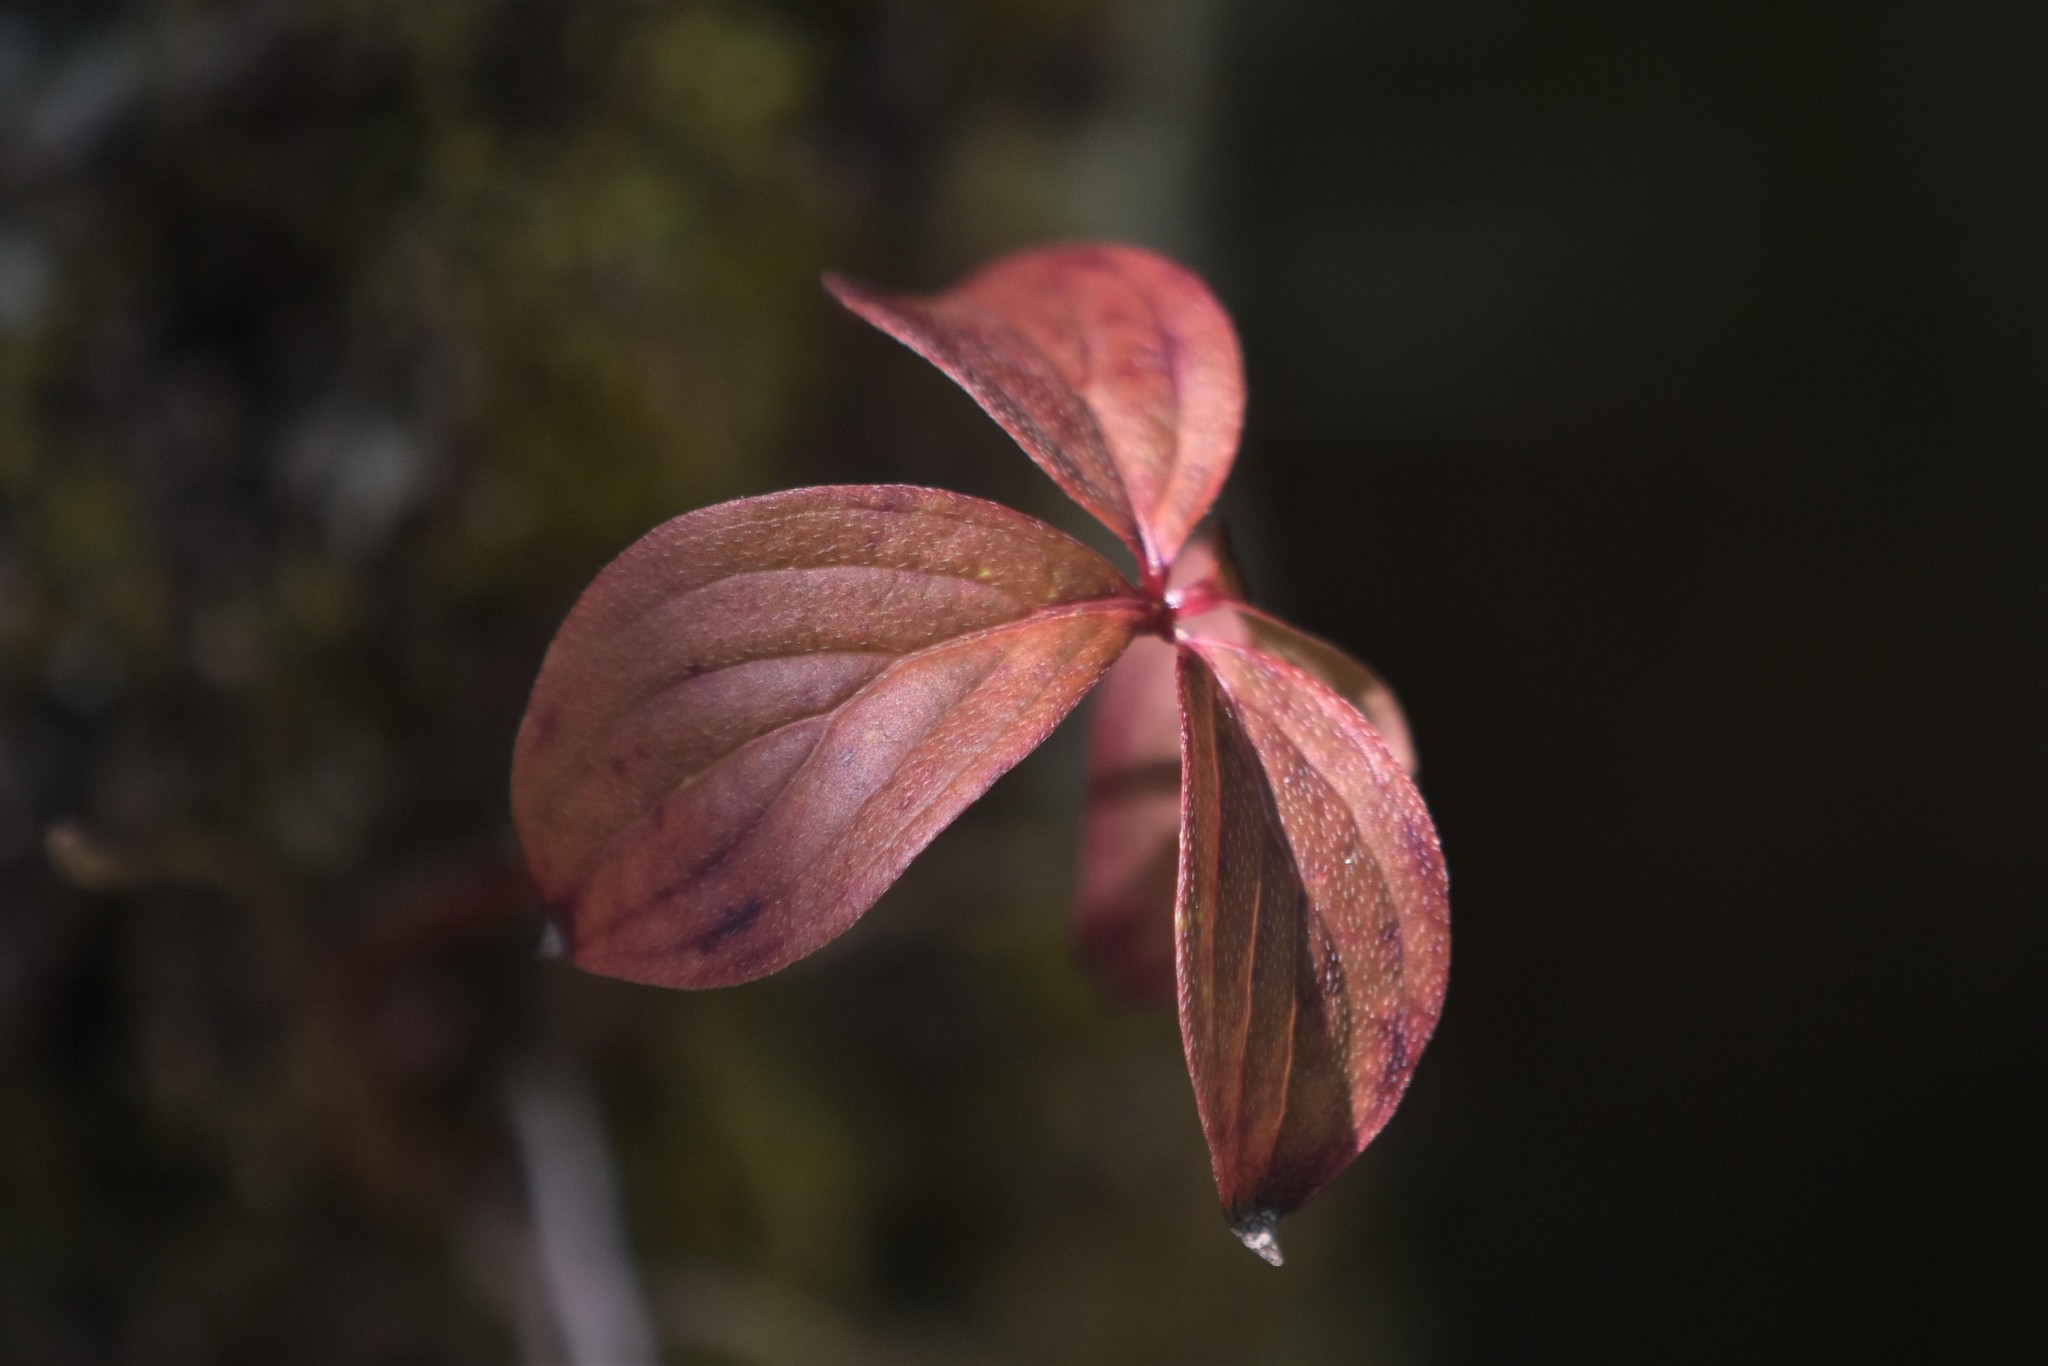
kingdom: Plantae
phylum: Tracheophyta
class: Magnoliopsida
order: Cornales
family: Cornaceae
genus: Cornus
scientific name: Cornus unalaschkensis
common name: Alaska bunchberry
